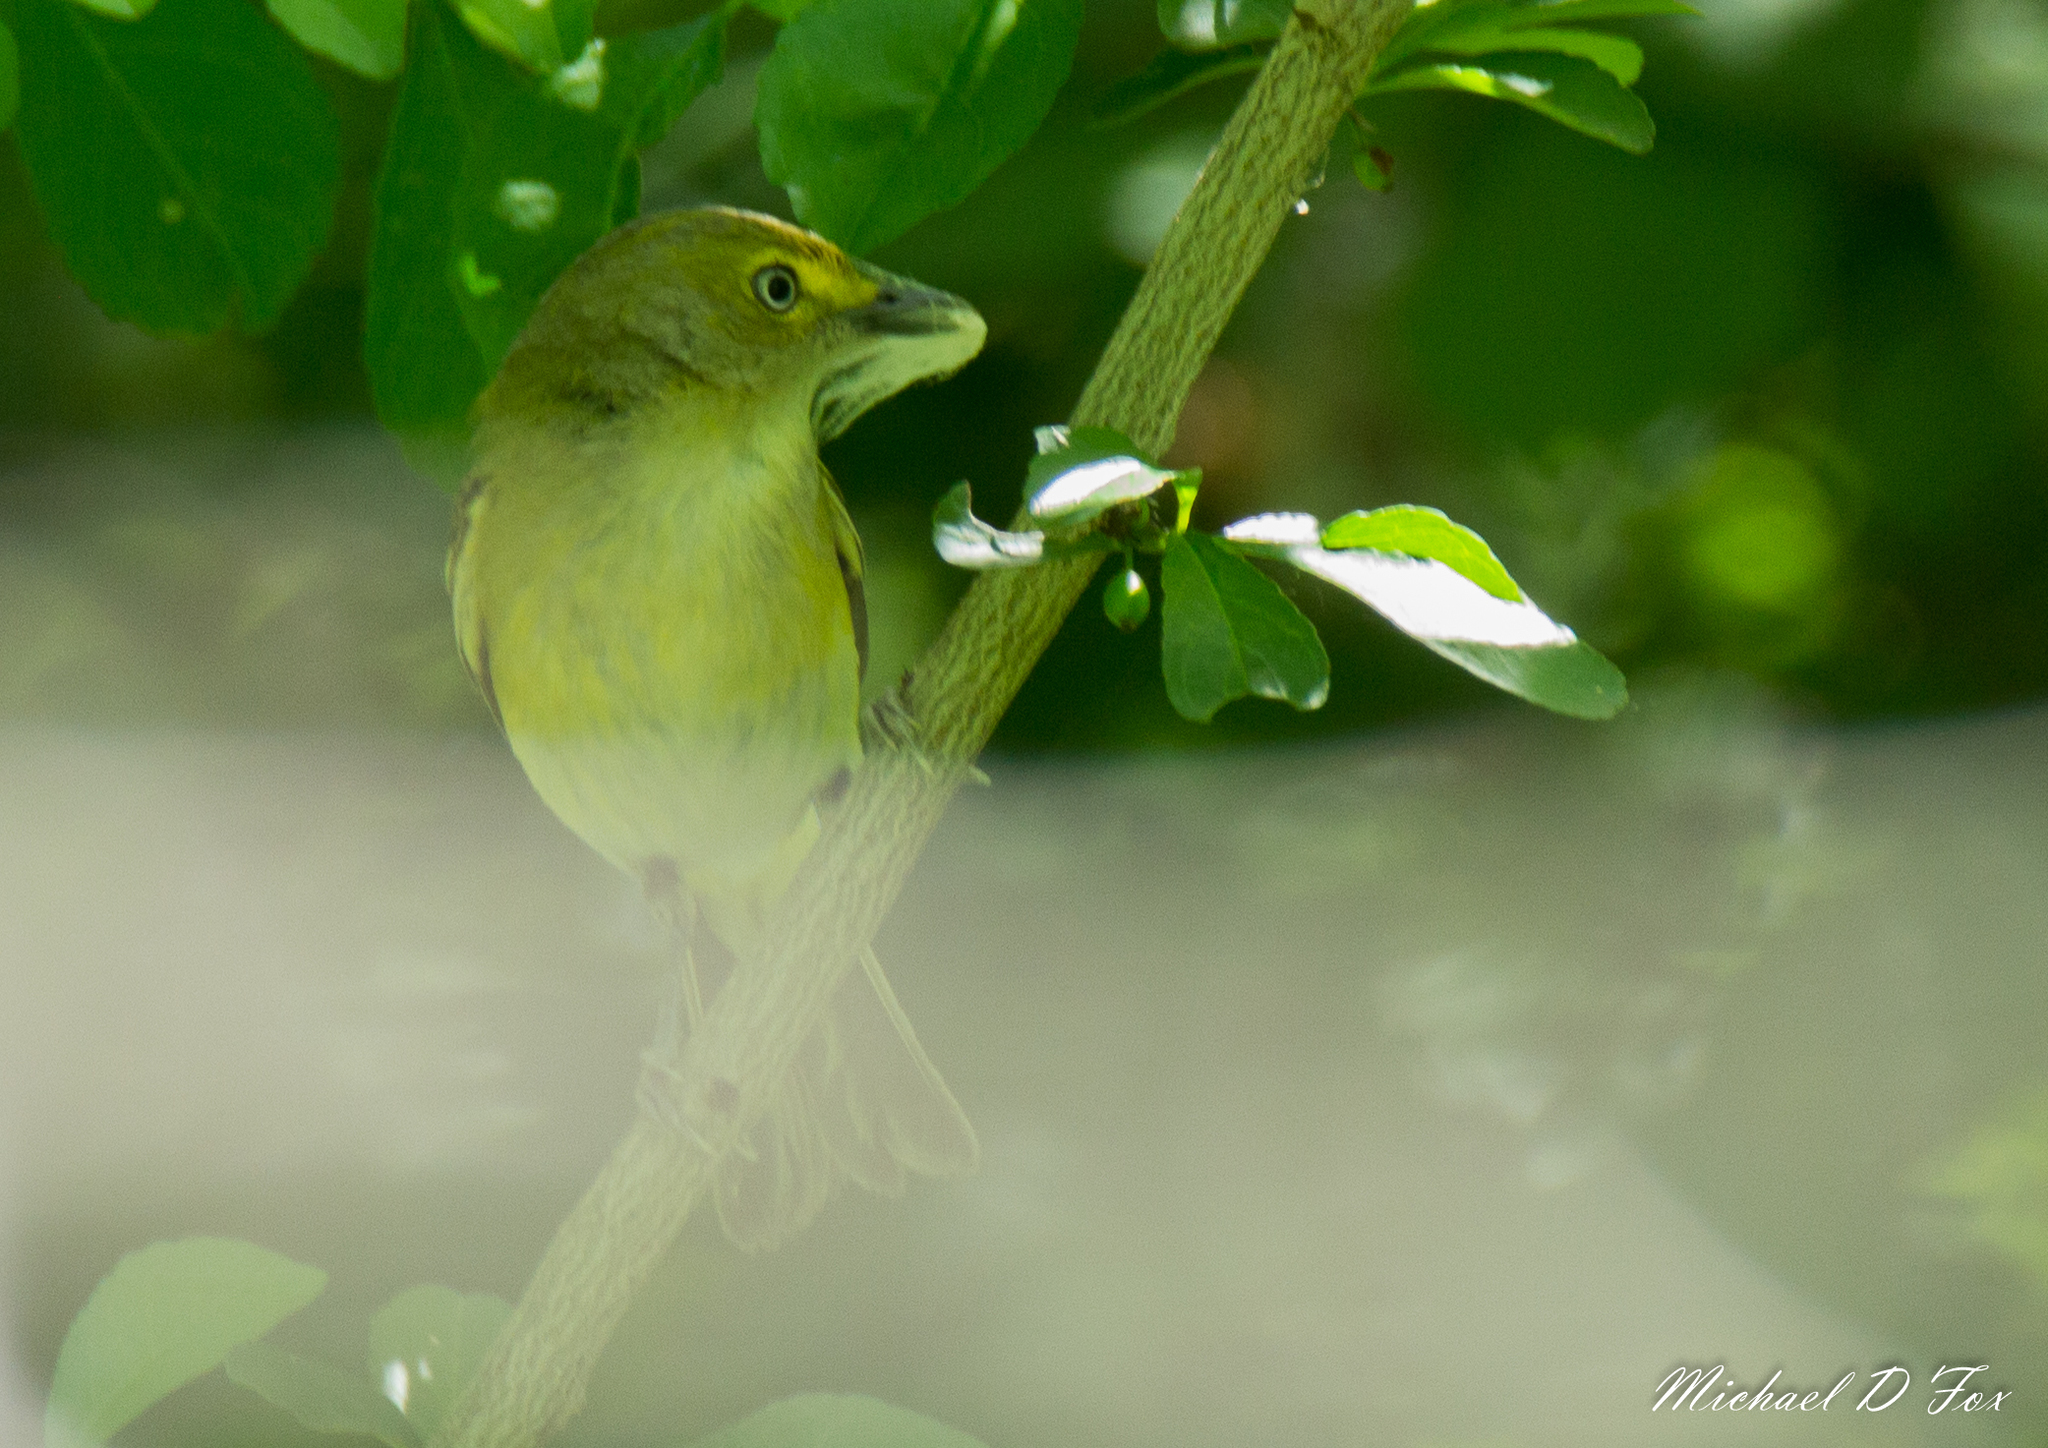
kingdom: Animalia
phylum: Chordata
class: Aves
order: Passeriformes
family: Vireonidae
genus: Vireo
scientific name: Vireo griseus
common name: White-eyed vireo
